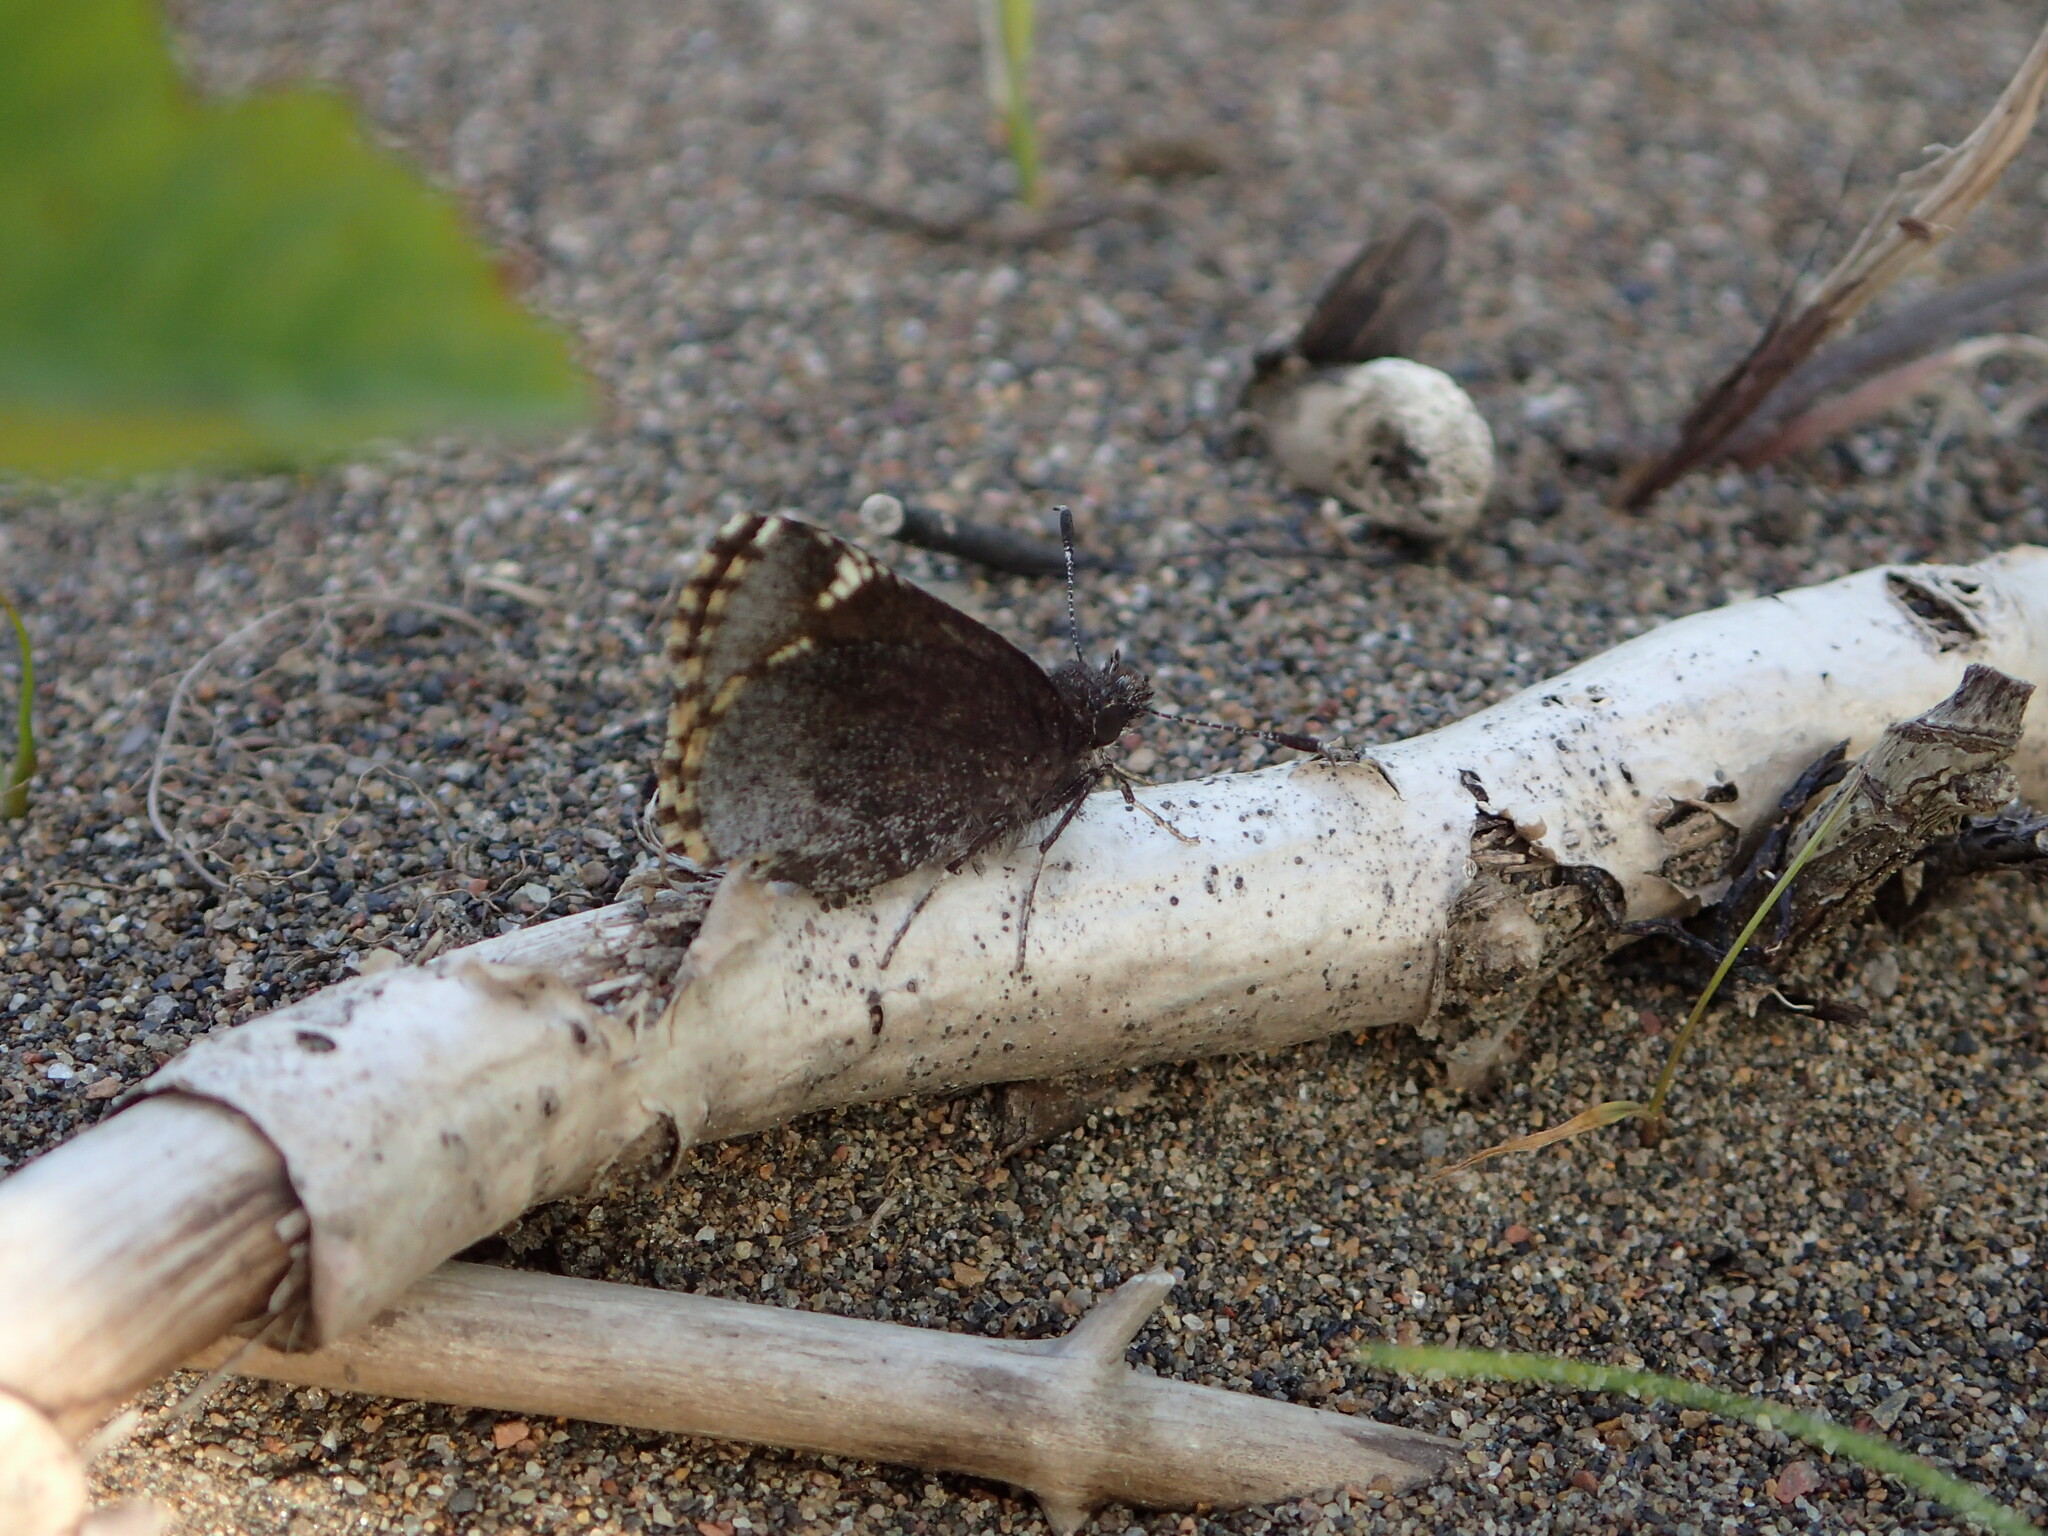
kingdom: Animalia
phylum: Arthropoda
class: Insecta
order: Lepidoptera
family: Hesperiidae
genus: Mastor
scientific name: Mastor vialis
